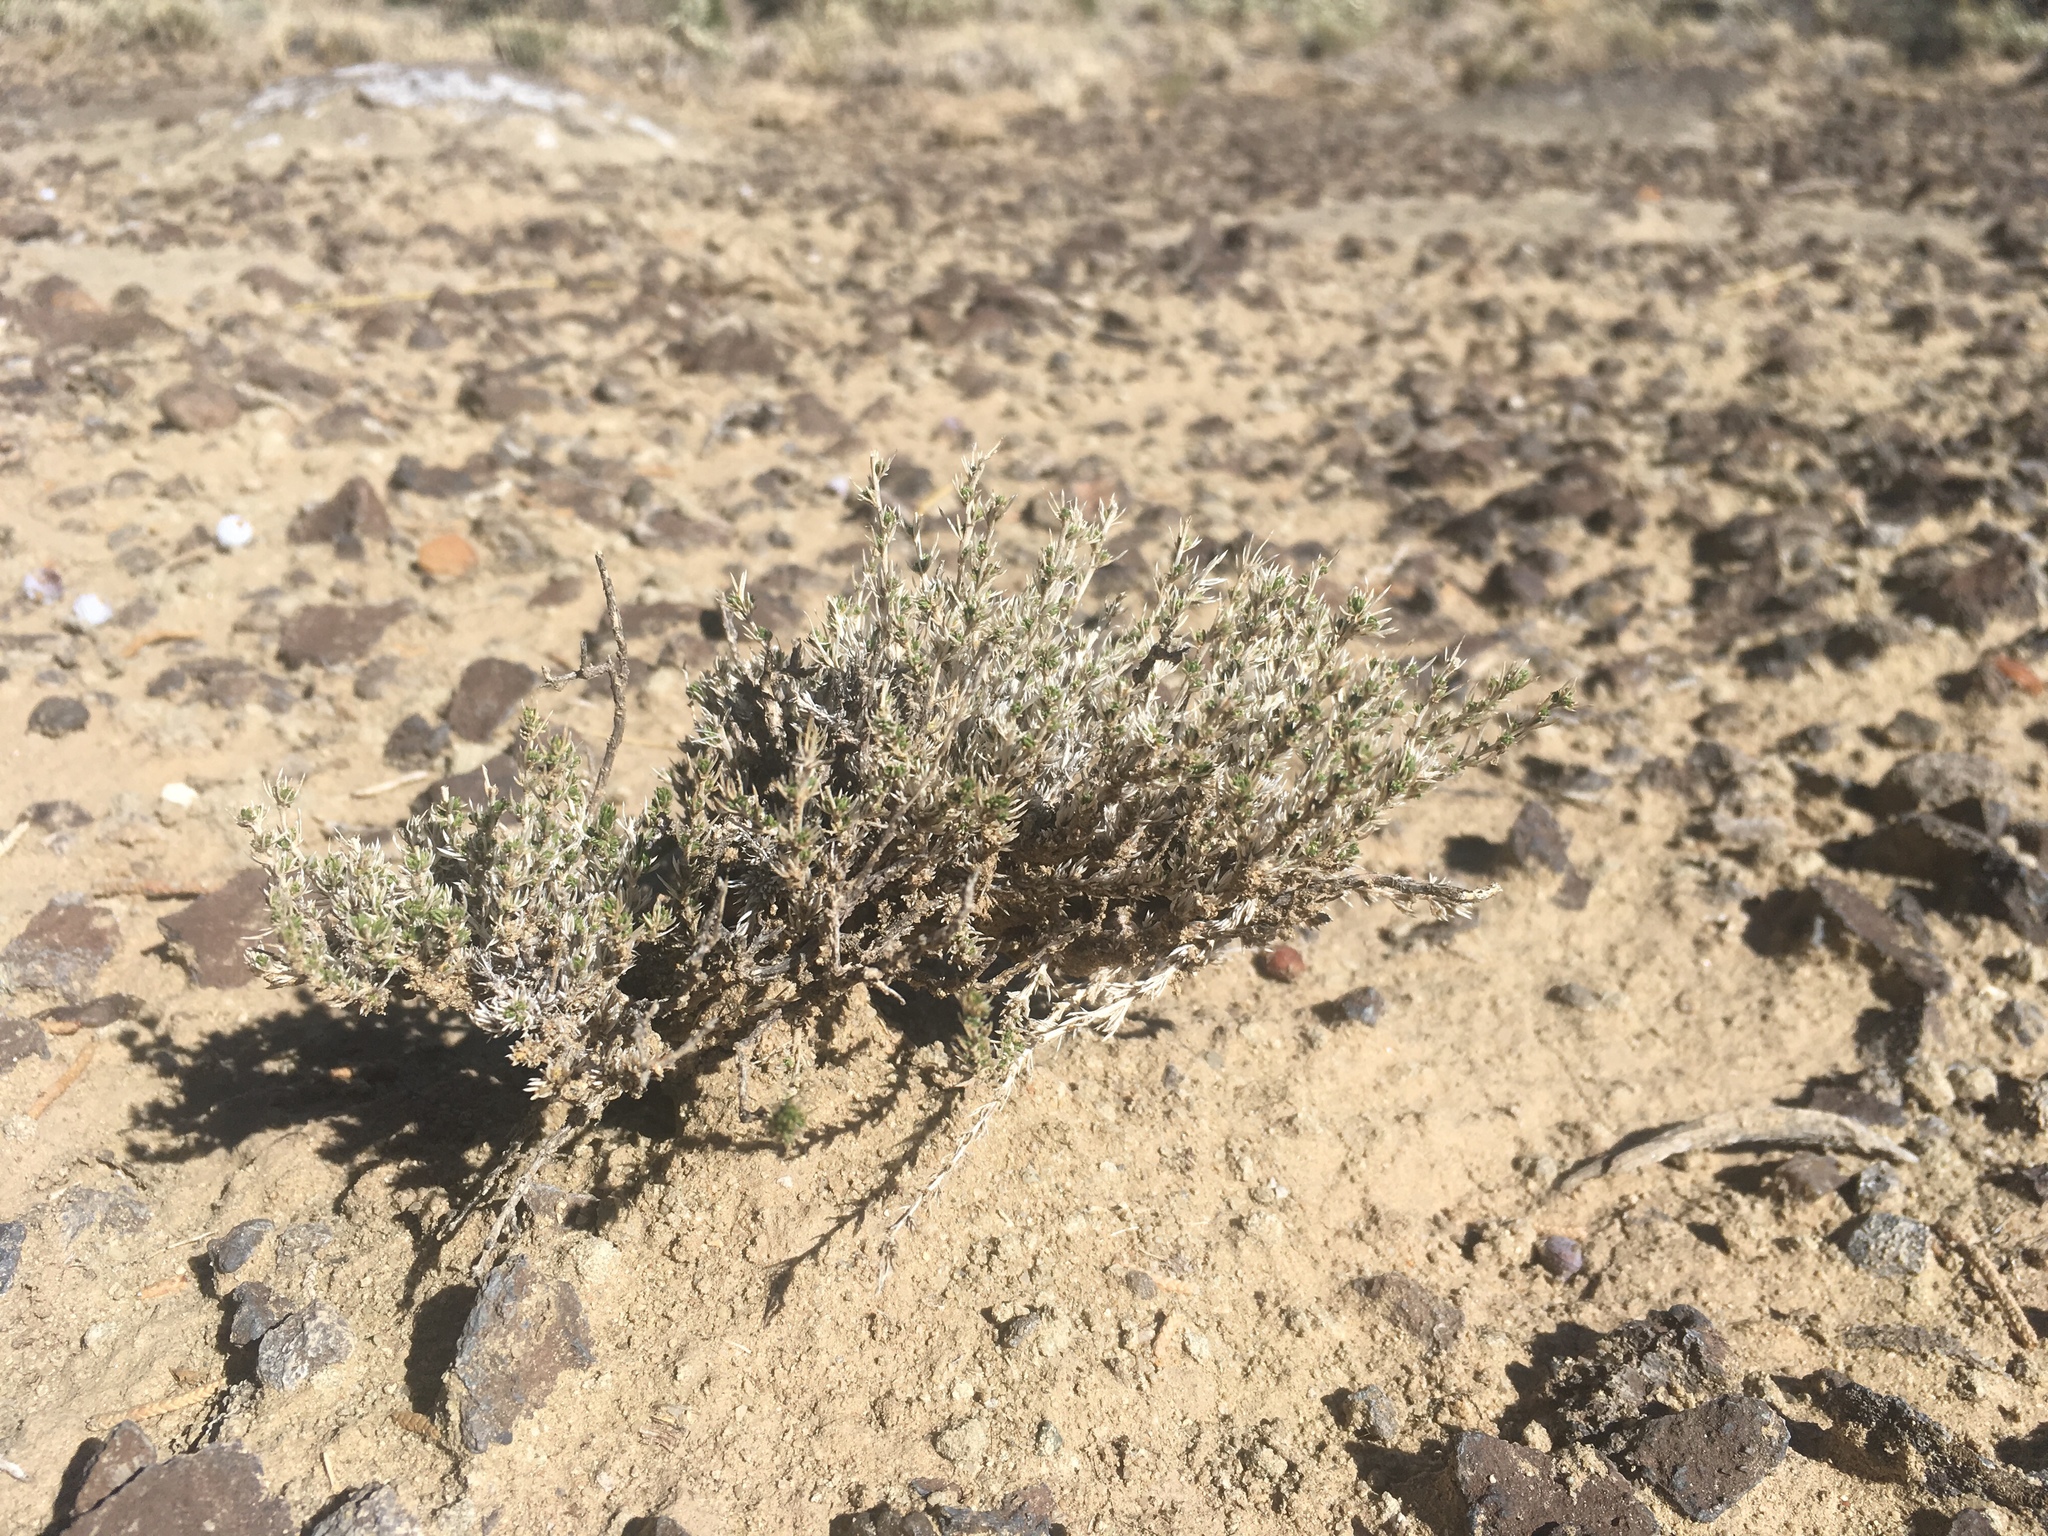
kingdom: Plantae
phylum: Tracheophyta
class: Magnoliopsida
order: Ericales
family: Polemoniaceae
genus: Linanthus
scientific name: Linanthus pungens
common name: Granite prickly phlox
